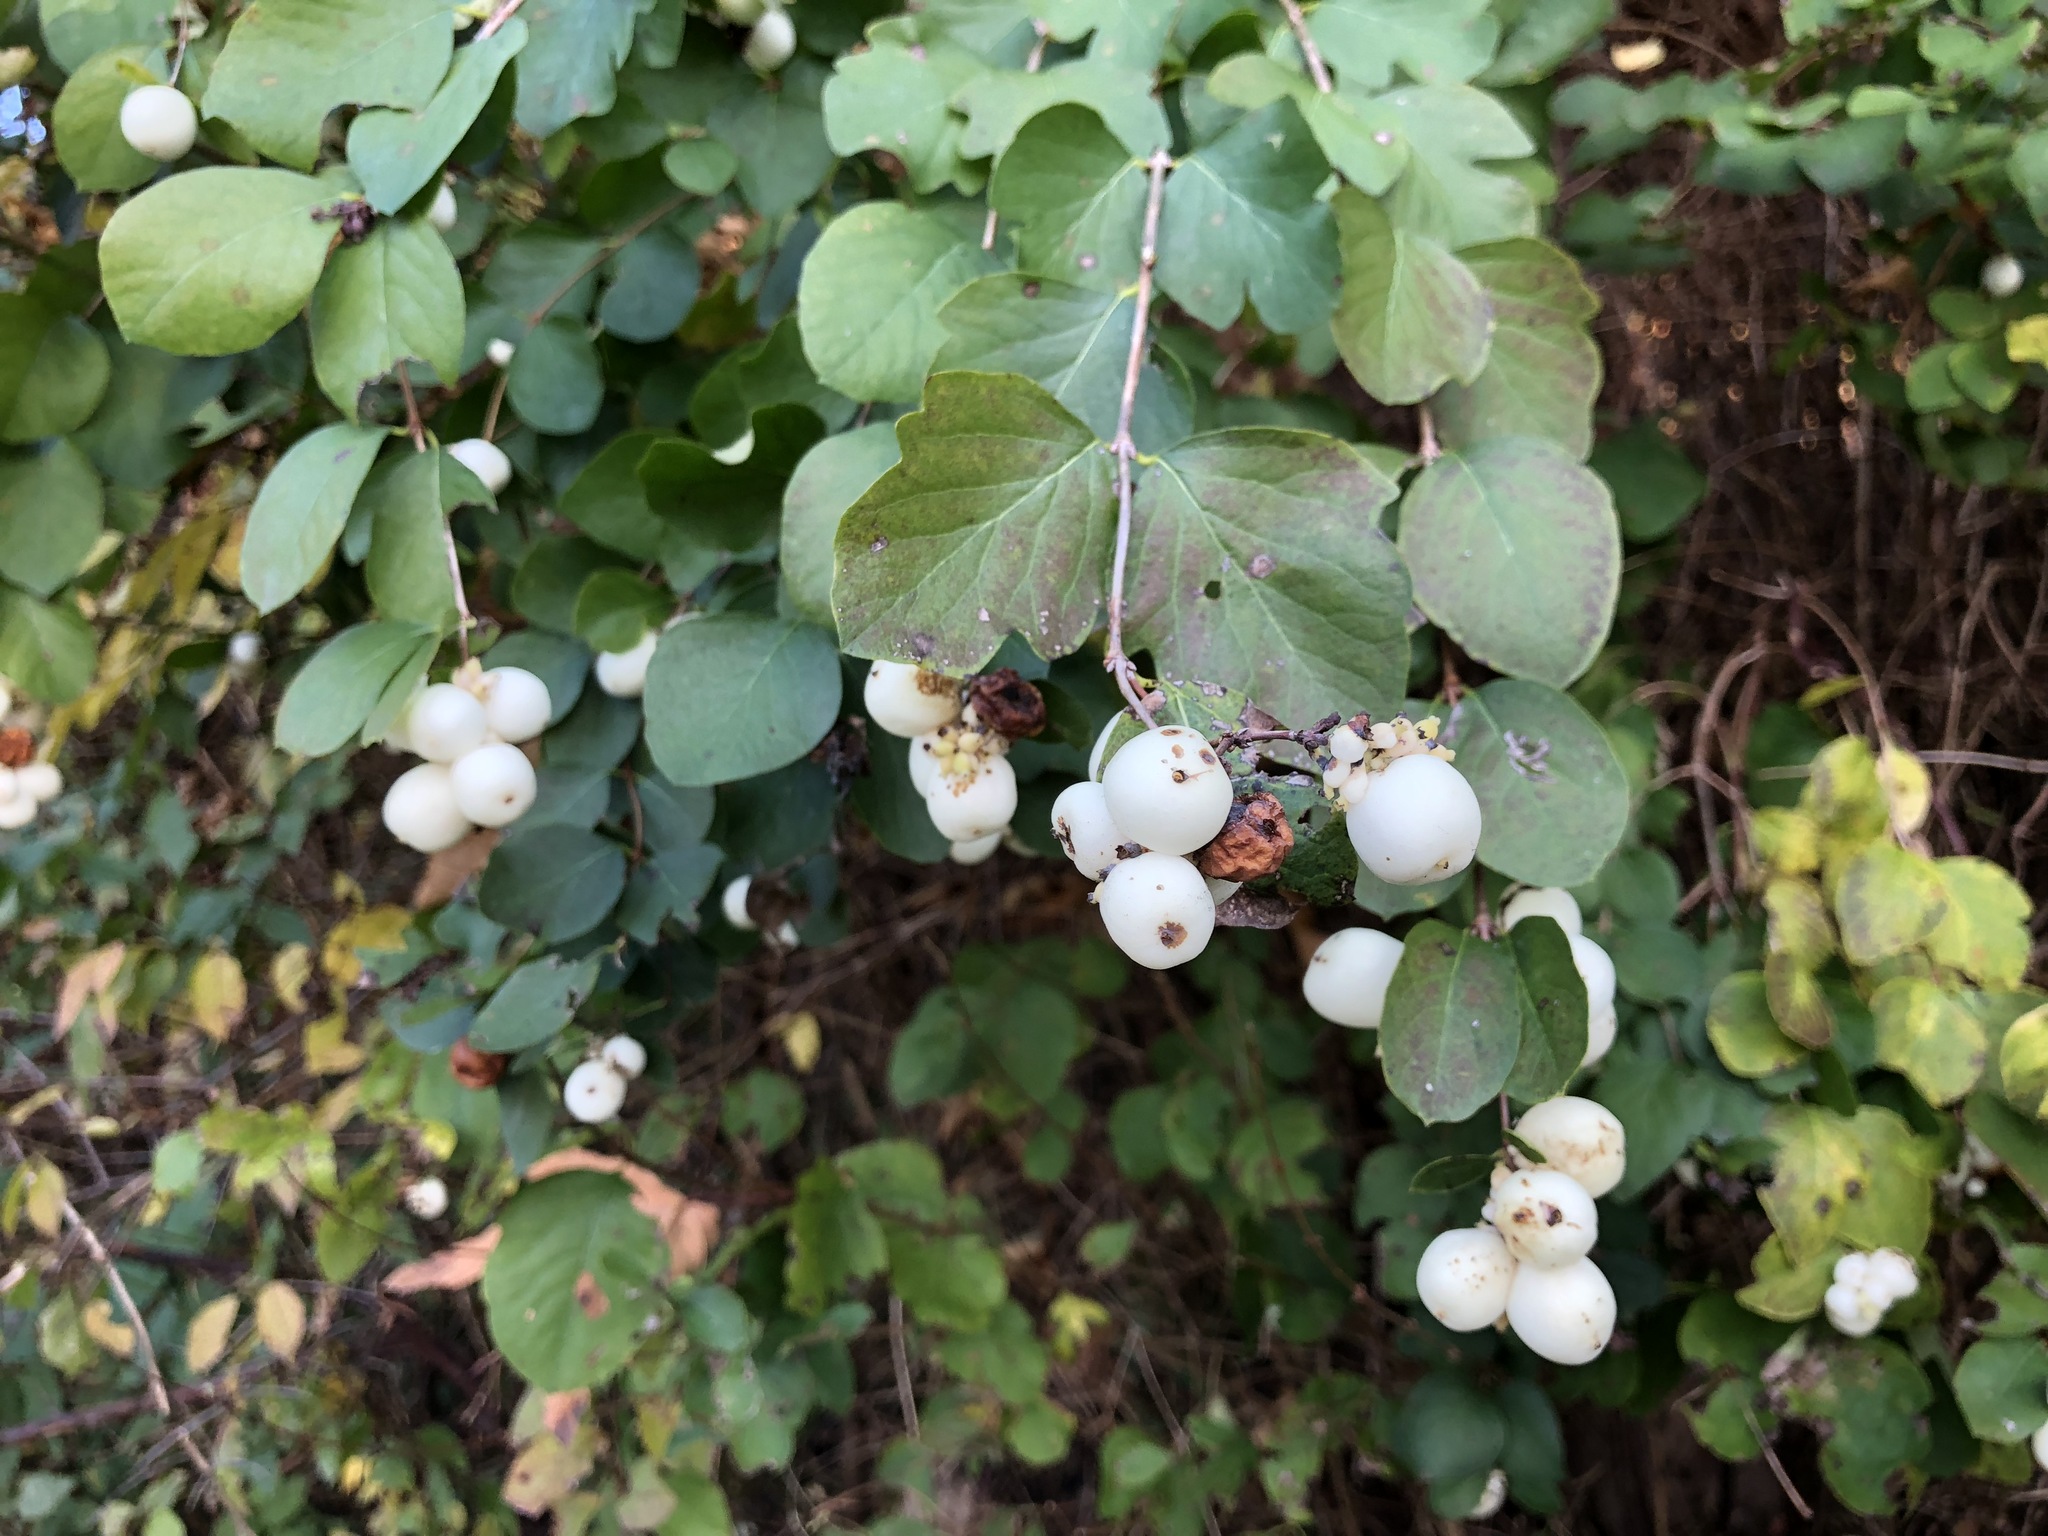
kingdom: Plantae
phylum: Tracheophyta
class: Magnoliopsida
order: Dipsacales
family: Caprifoliaceae
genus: Symphoricarpos
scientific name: Symphoricarpos albus
